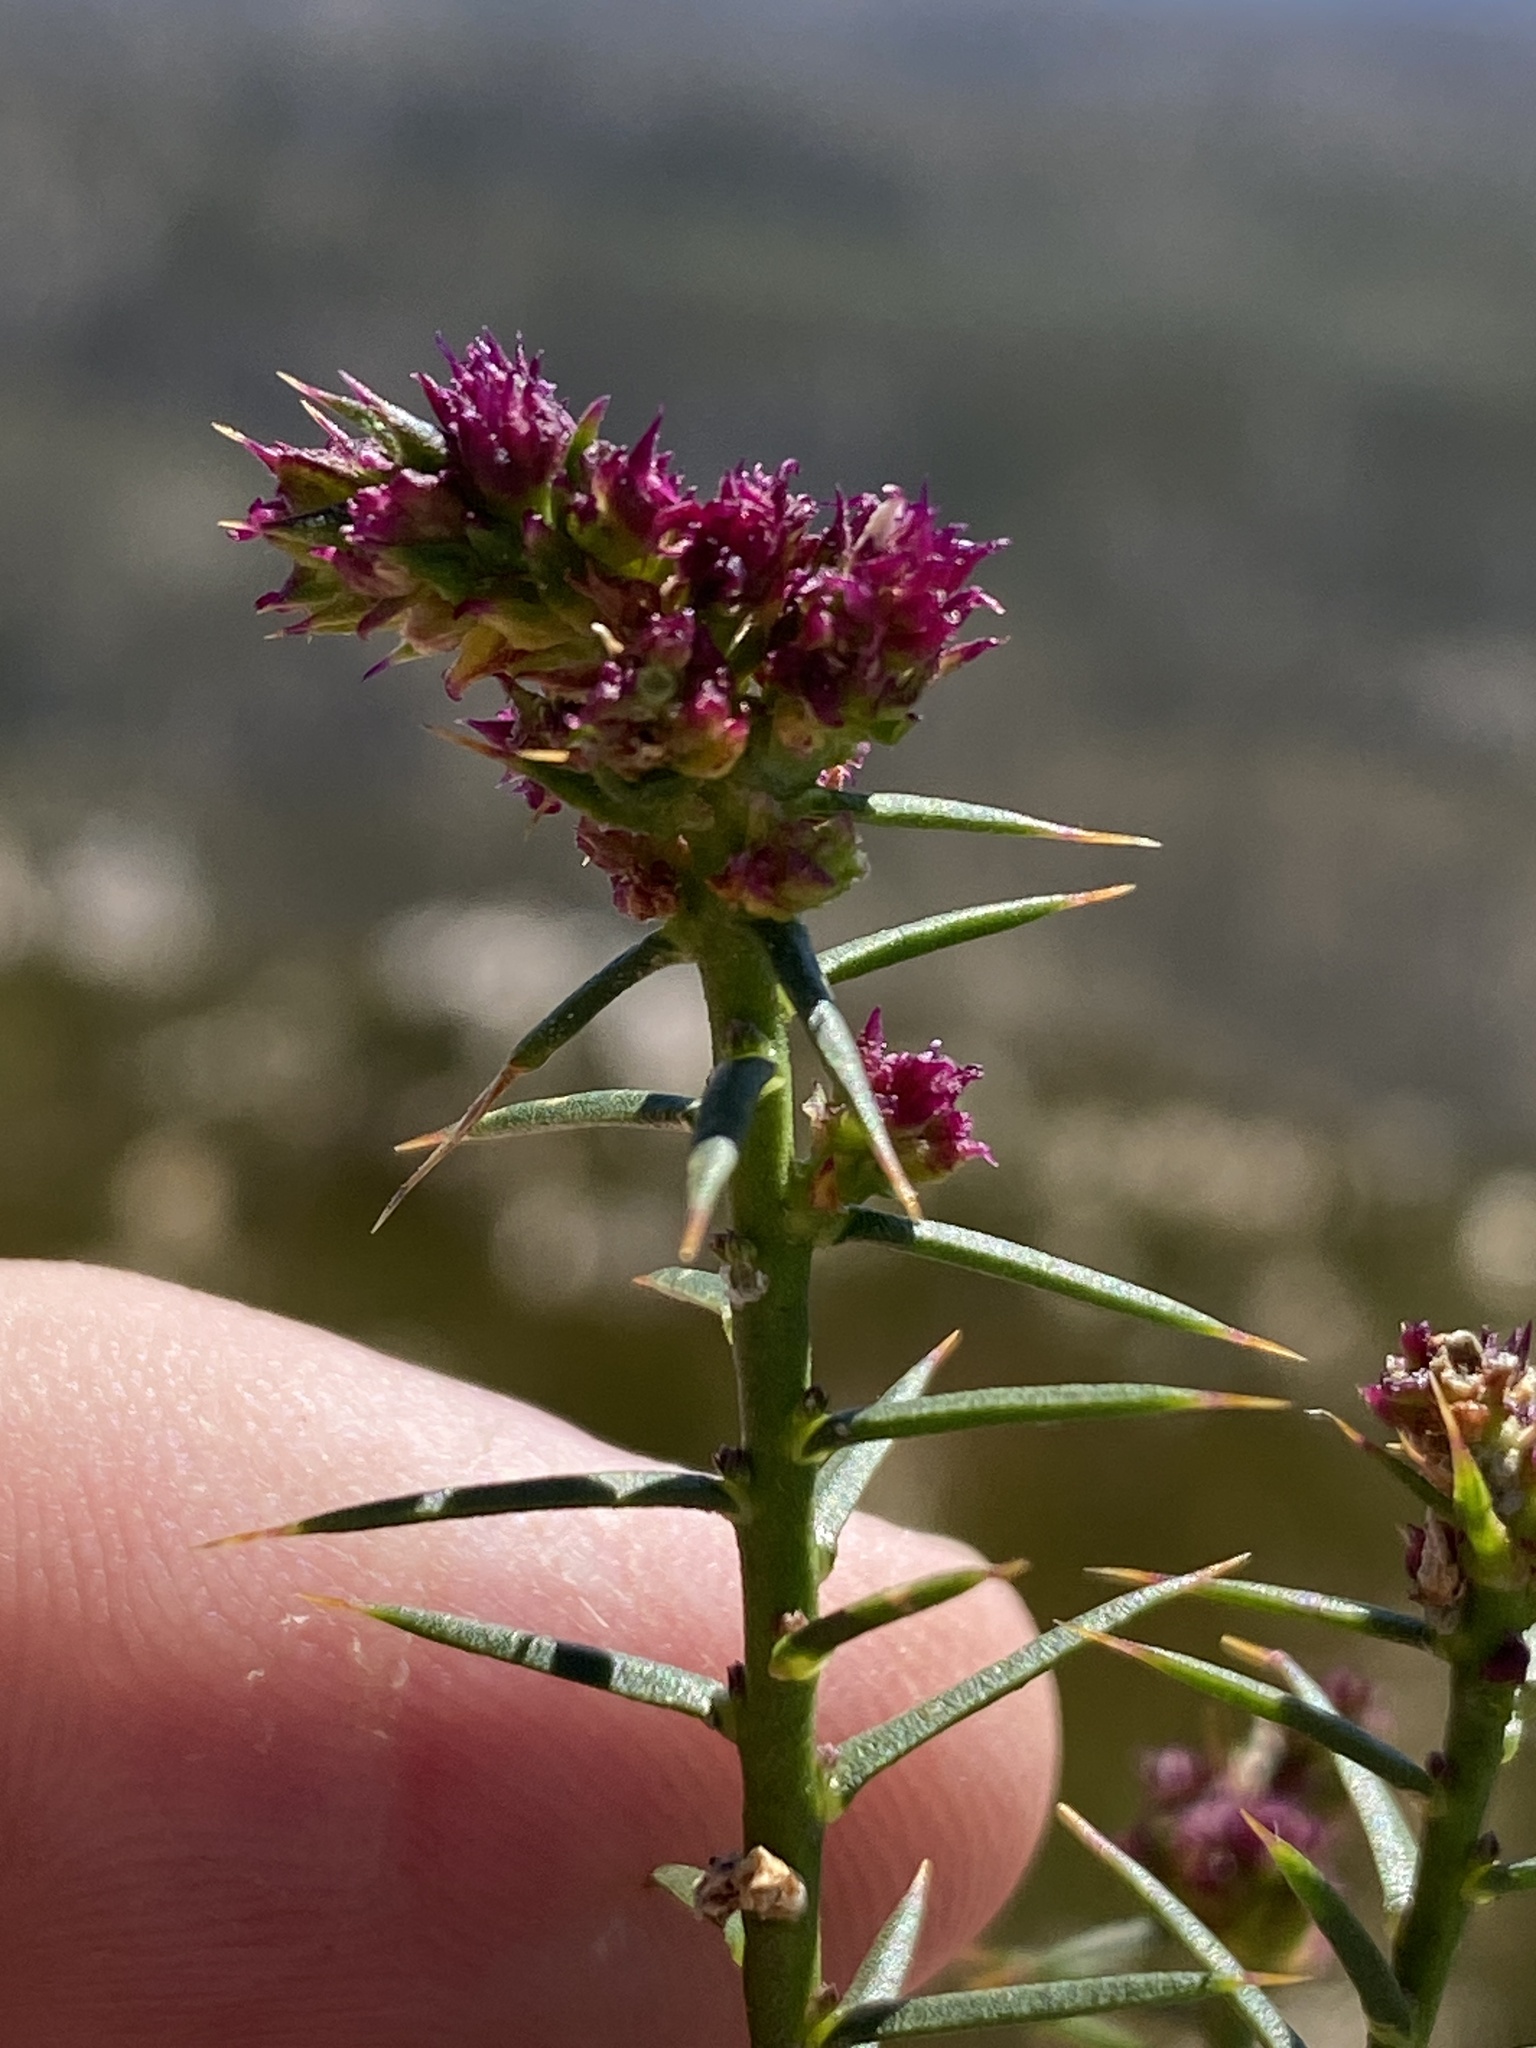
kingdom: Plantae
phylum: Tracheophyta
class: Magnoliopsida
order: Fabales
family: Polygalaceae
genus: Muraltia
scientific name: Muraltia juniperifolia
